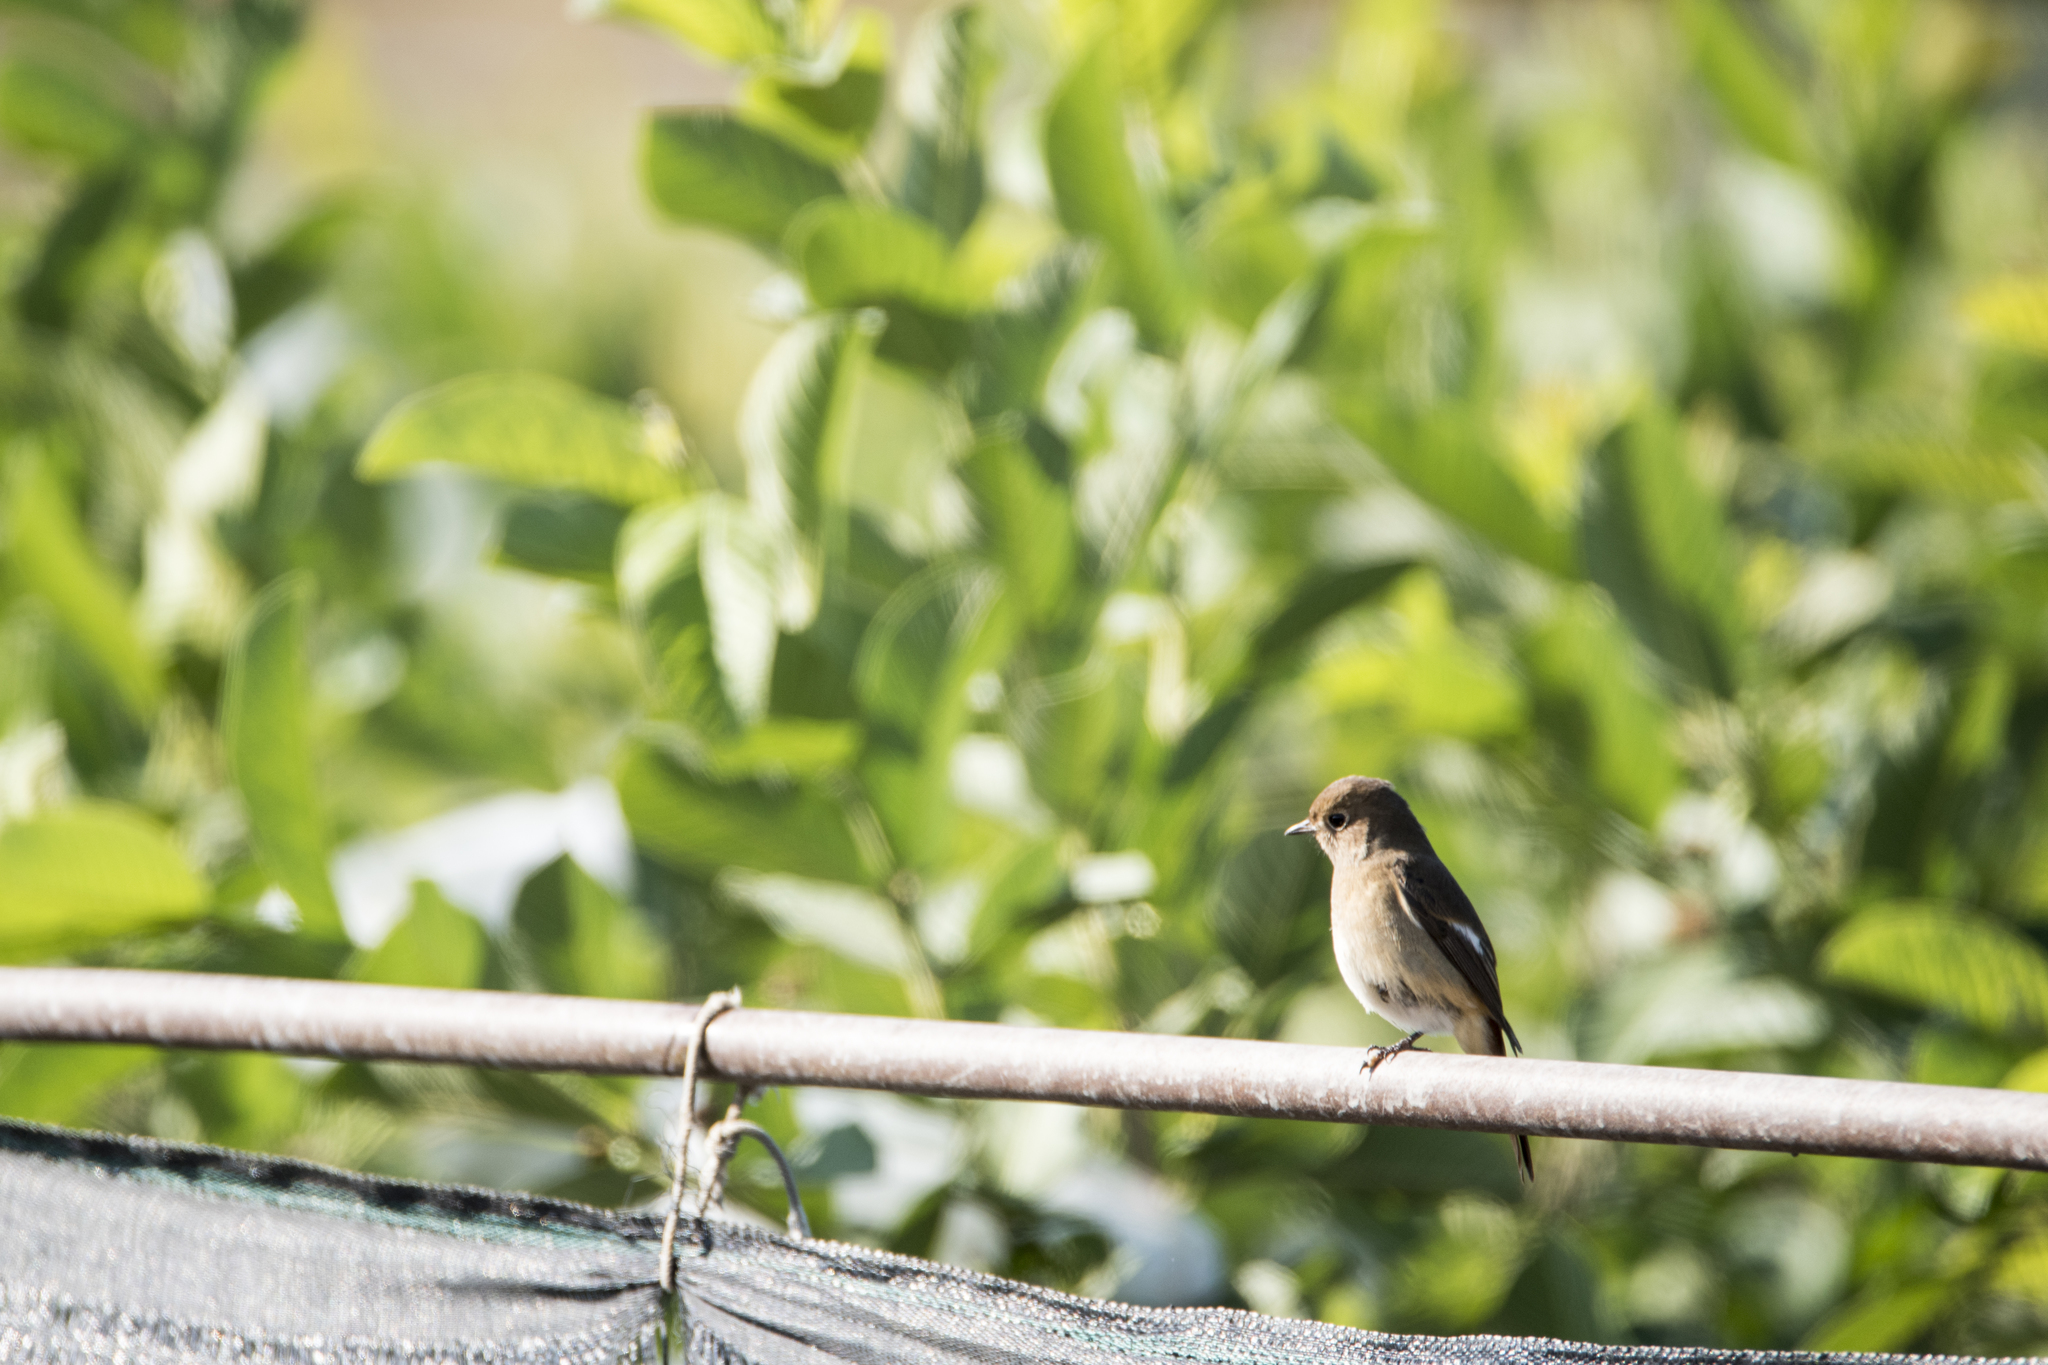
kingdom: Animalia
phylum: Chordata
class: Aves
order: Passeriformes
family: Muscicapidae
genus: Phoenicurus
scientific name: Phoenicurus auroreus
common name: Daurian redstart
